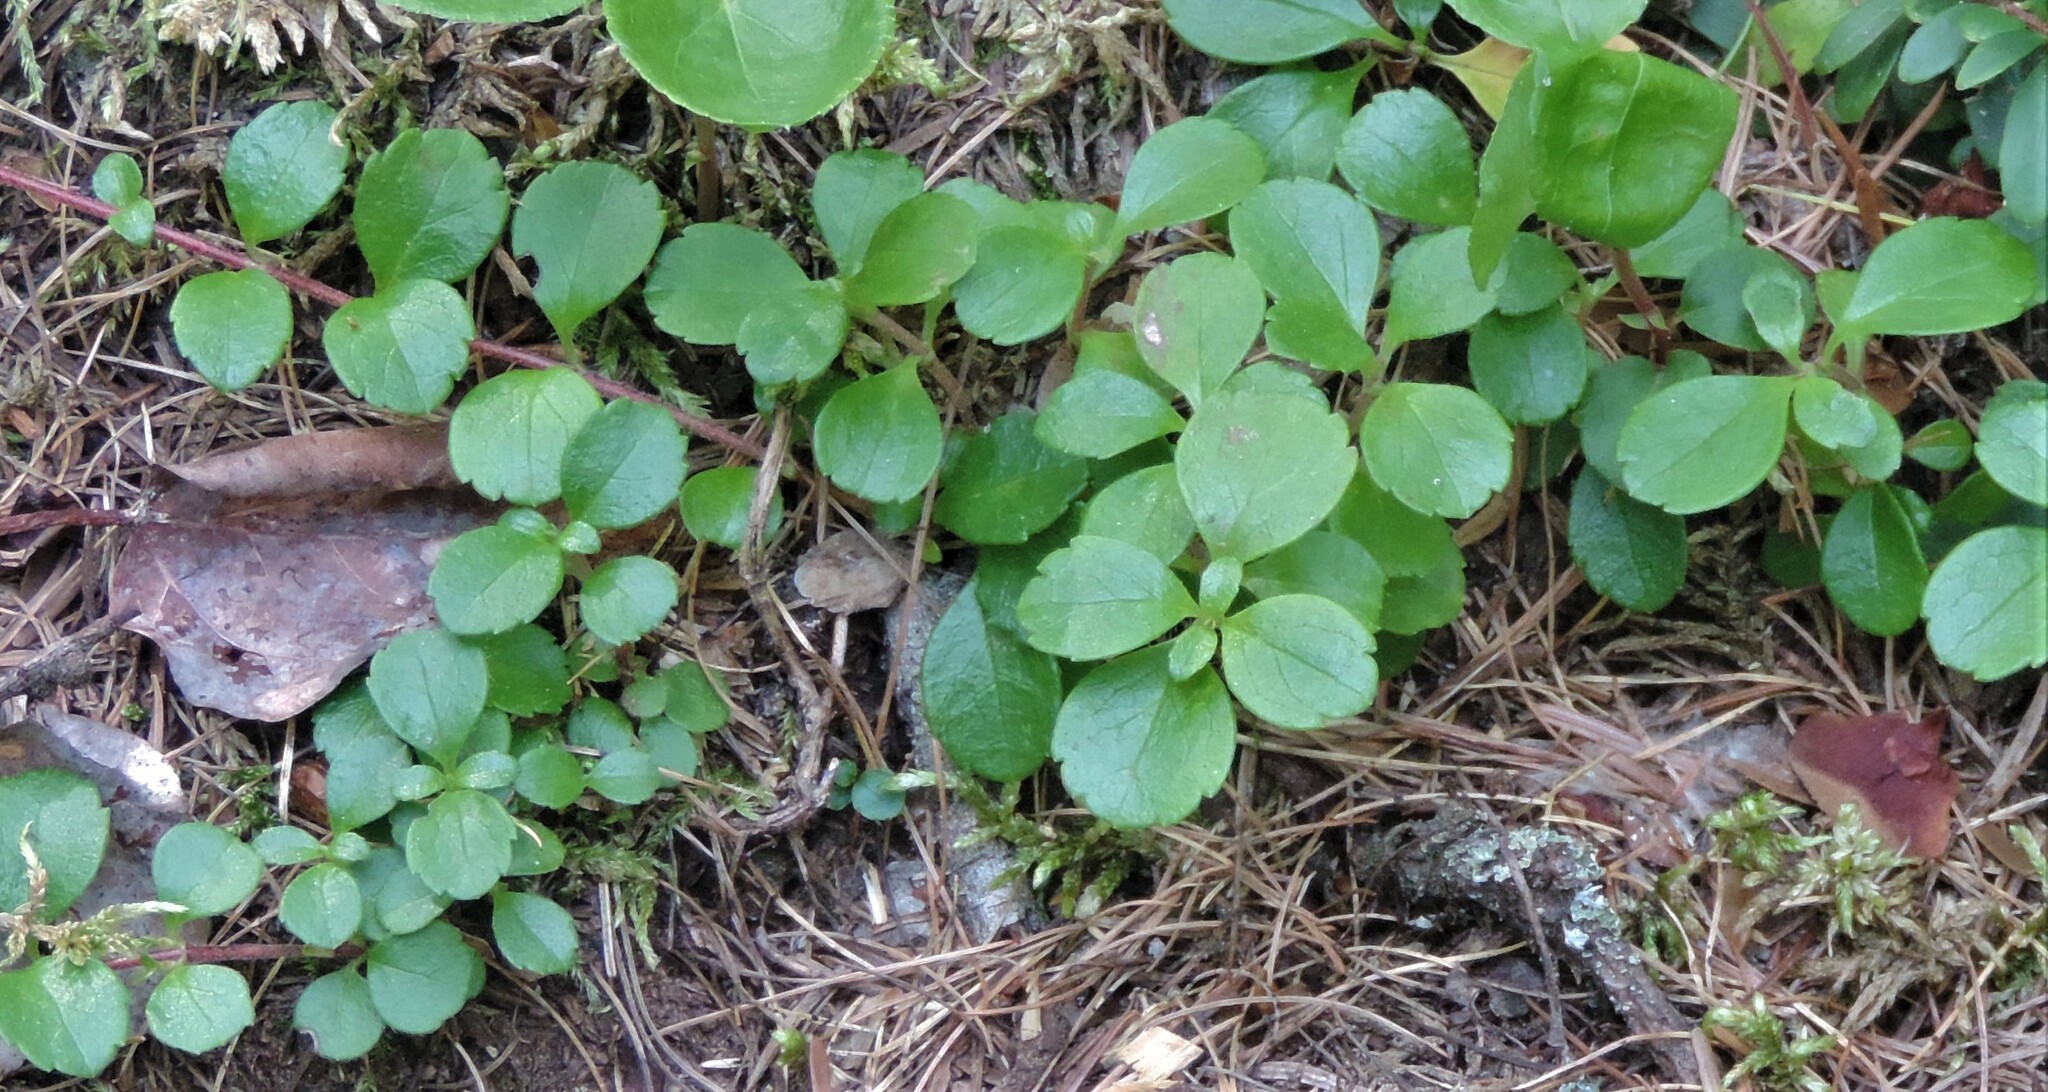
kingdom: Plantae
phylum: Tracheophyta
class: Magnoliopsida
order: Dipsacales
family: Caprifoliaceae
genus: Linnaea
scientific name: Linnaea borealis
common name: Twinflower
